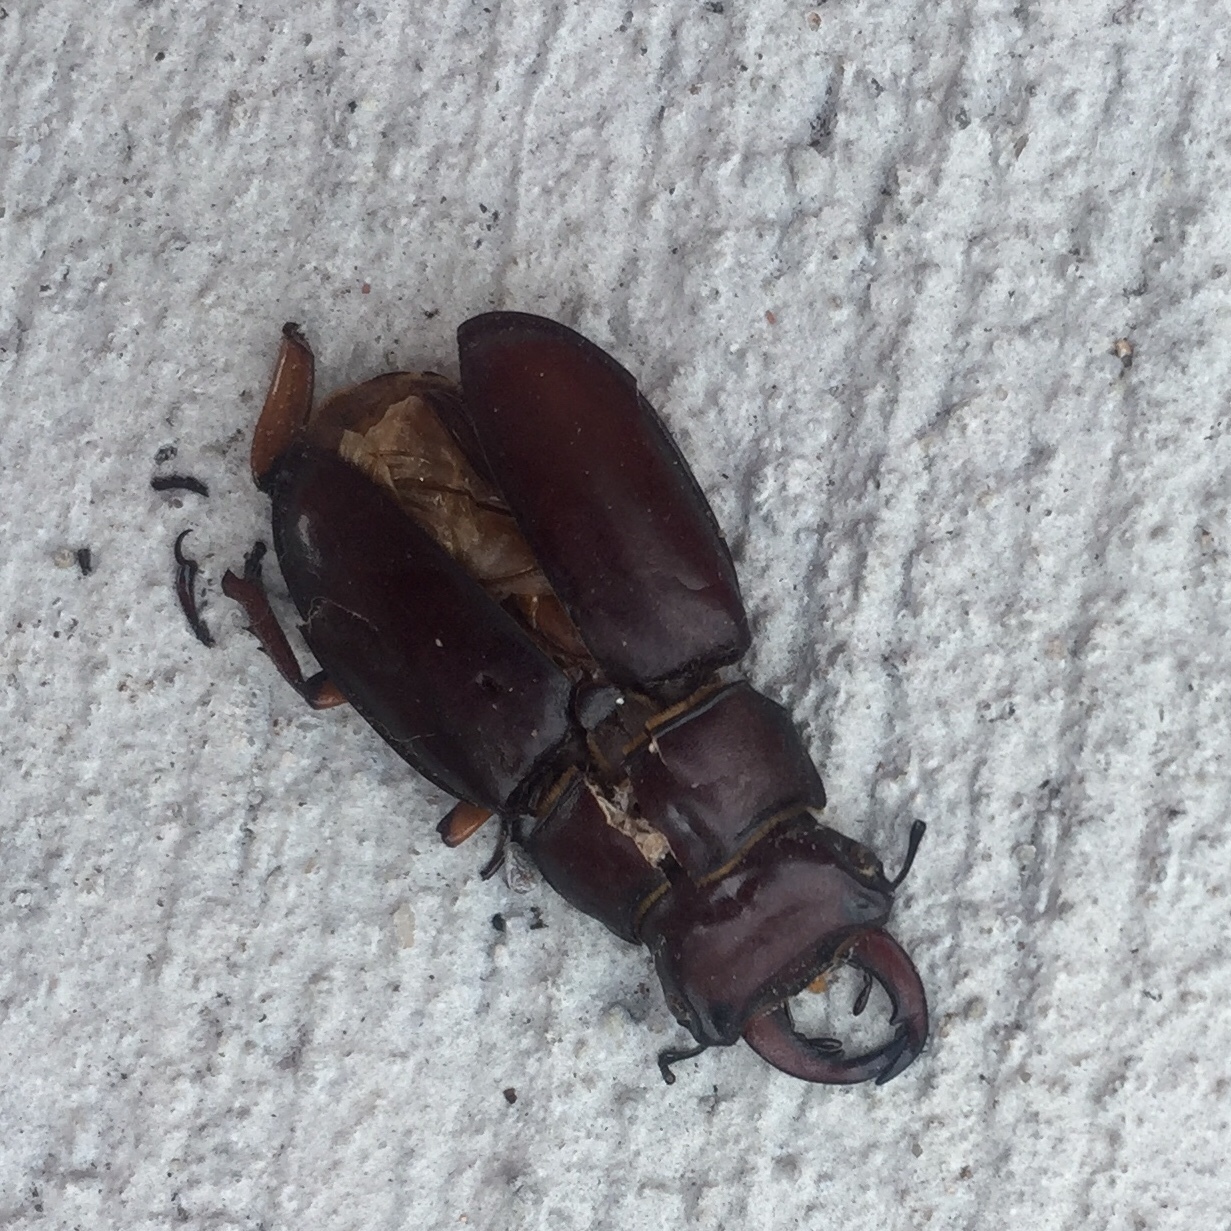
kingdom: Animalia
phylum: Arthropoda
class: Insecta
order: Coleoptera
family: Lucanidae
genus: Lucanus
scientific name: Lucanus capreolus
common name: Stag beetle
